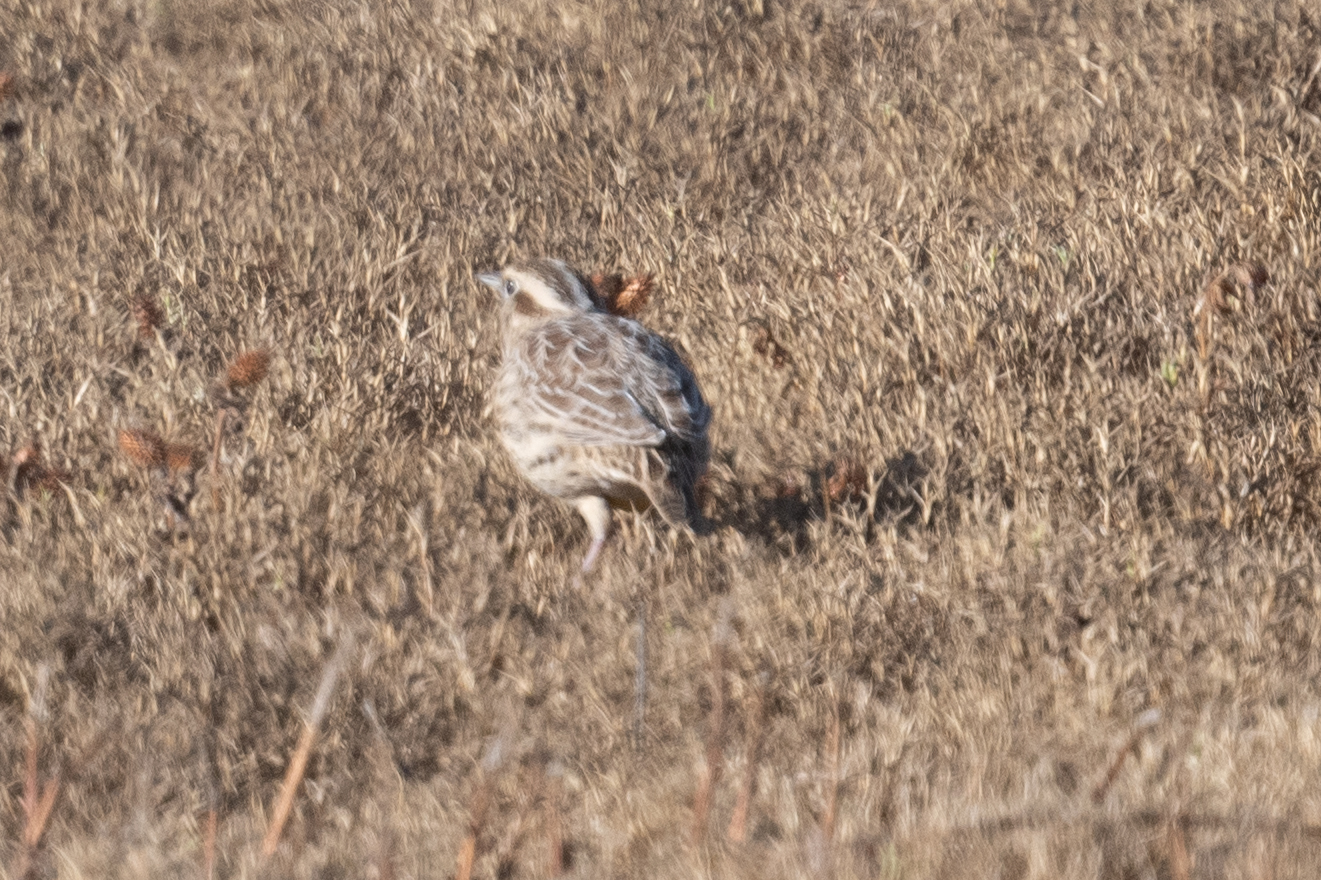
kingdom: Animalia
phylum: Chordata
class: Aves
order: Passeriformes
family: Icteridae
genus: Sturnella
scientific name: Sturnella neglecta
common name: Western meadowlark
